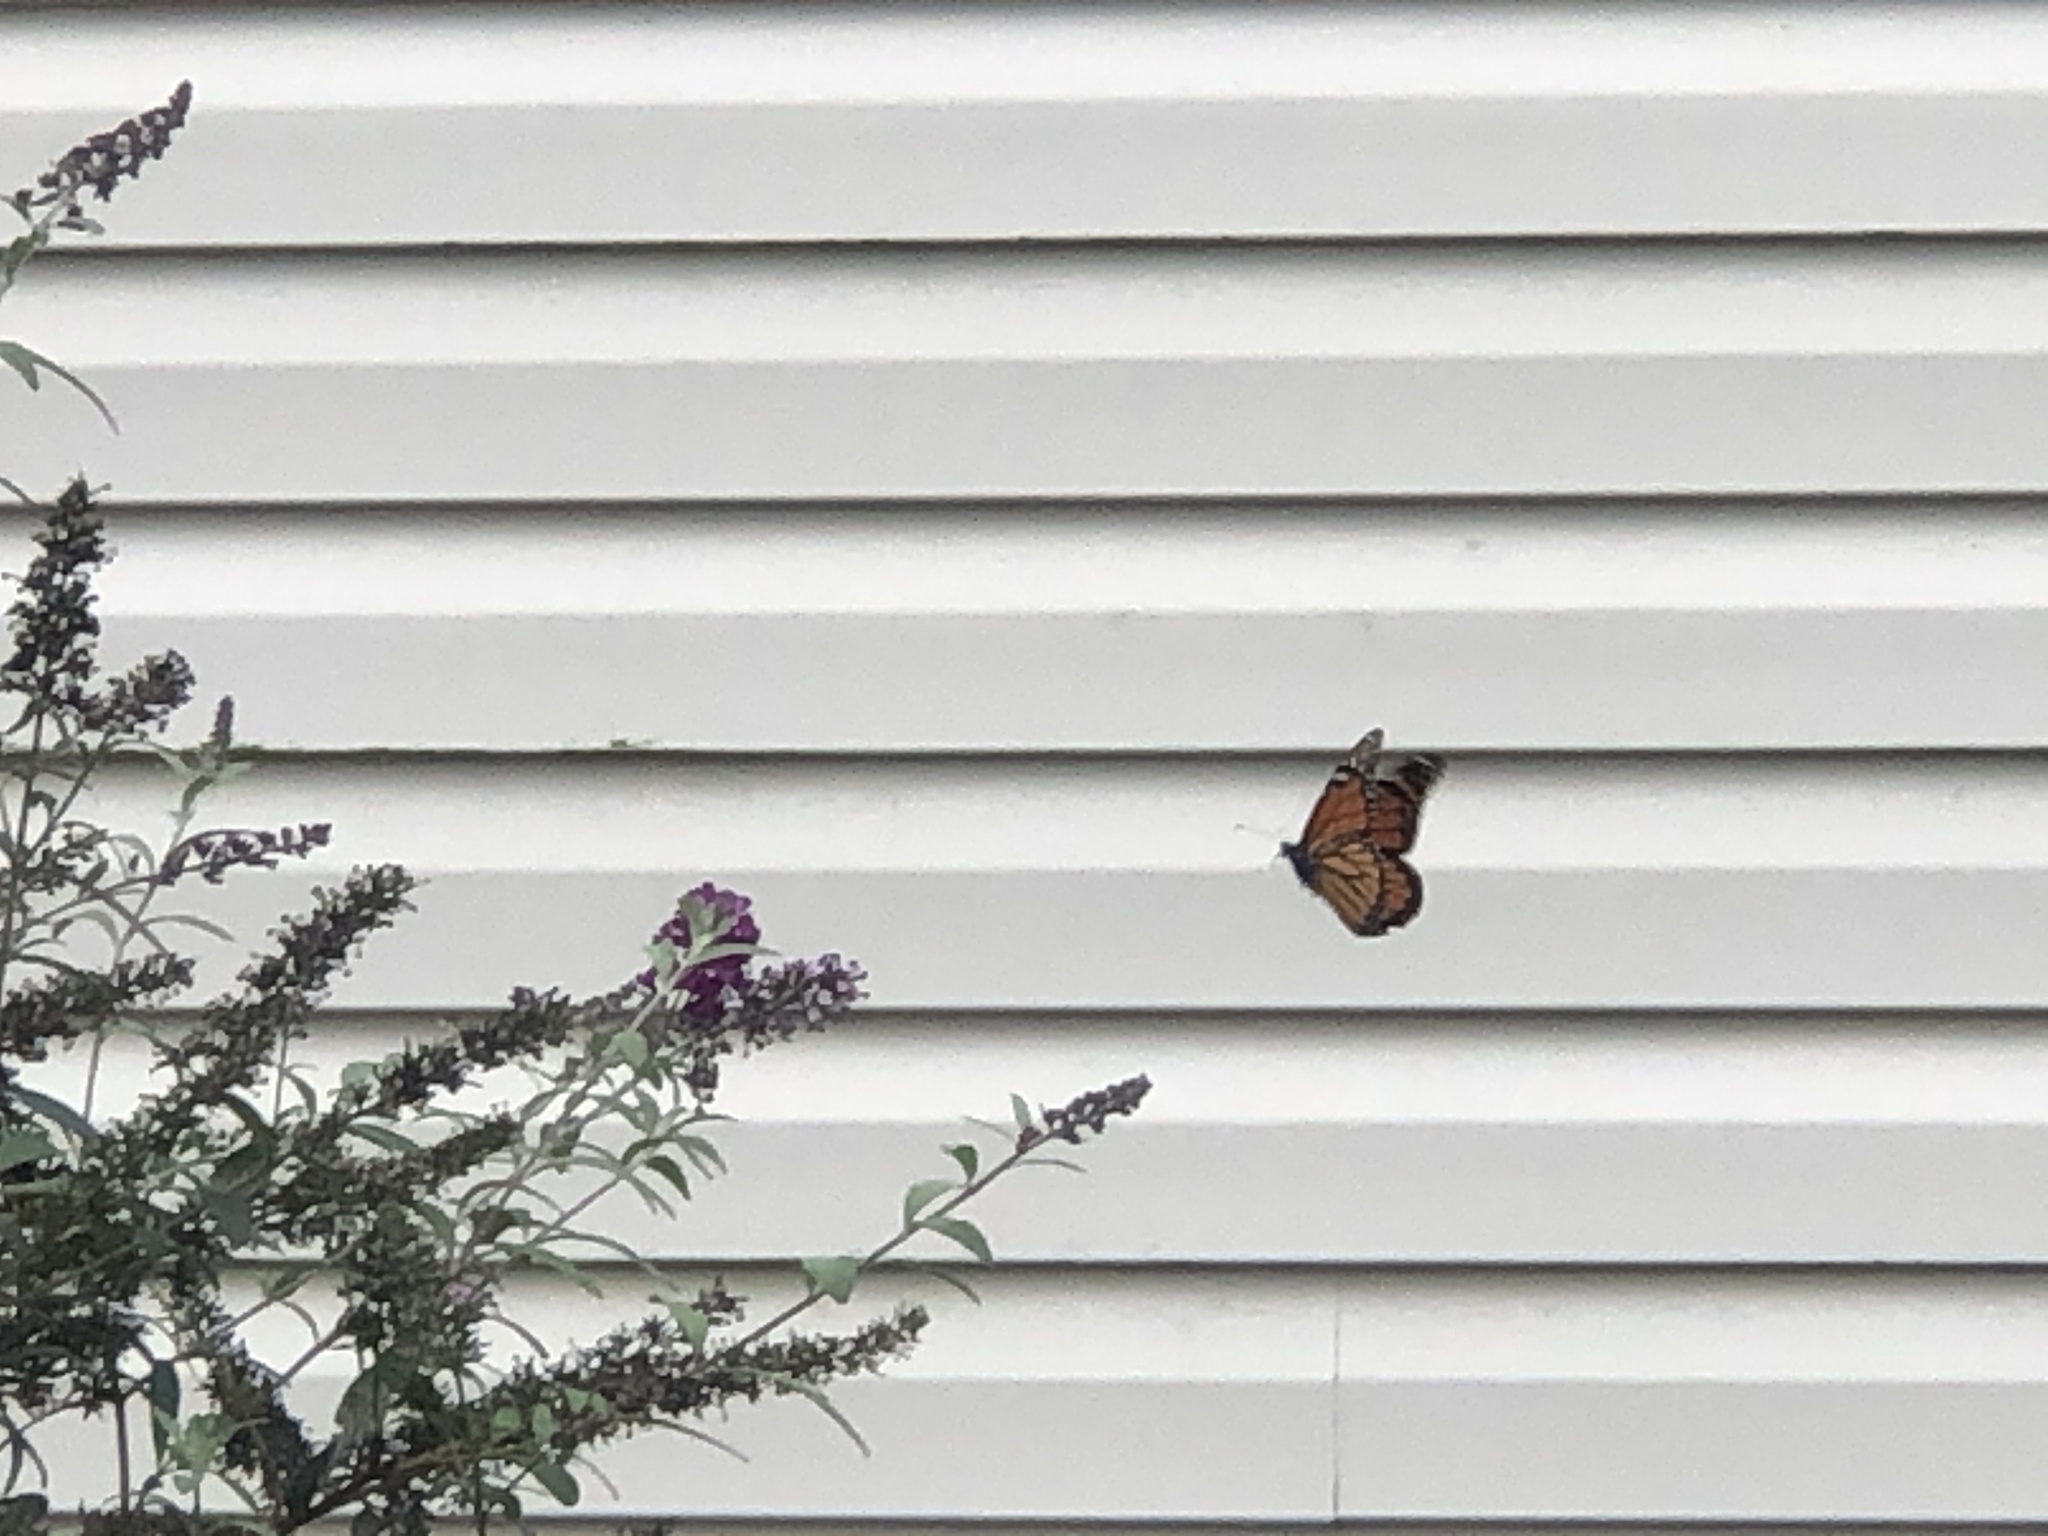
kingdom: Animalia
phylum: Arthropoda
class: Insecta
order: Lepidoptera
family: Nymphalidae
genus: Danaus
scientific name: Danaus plexippus
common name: Monarch
